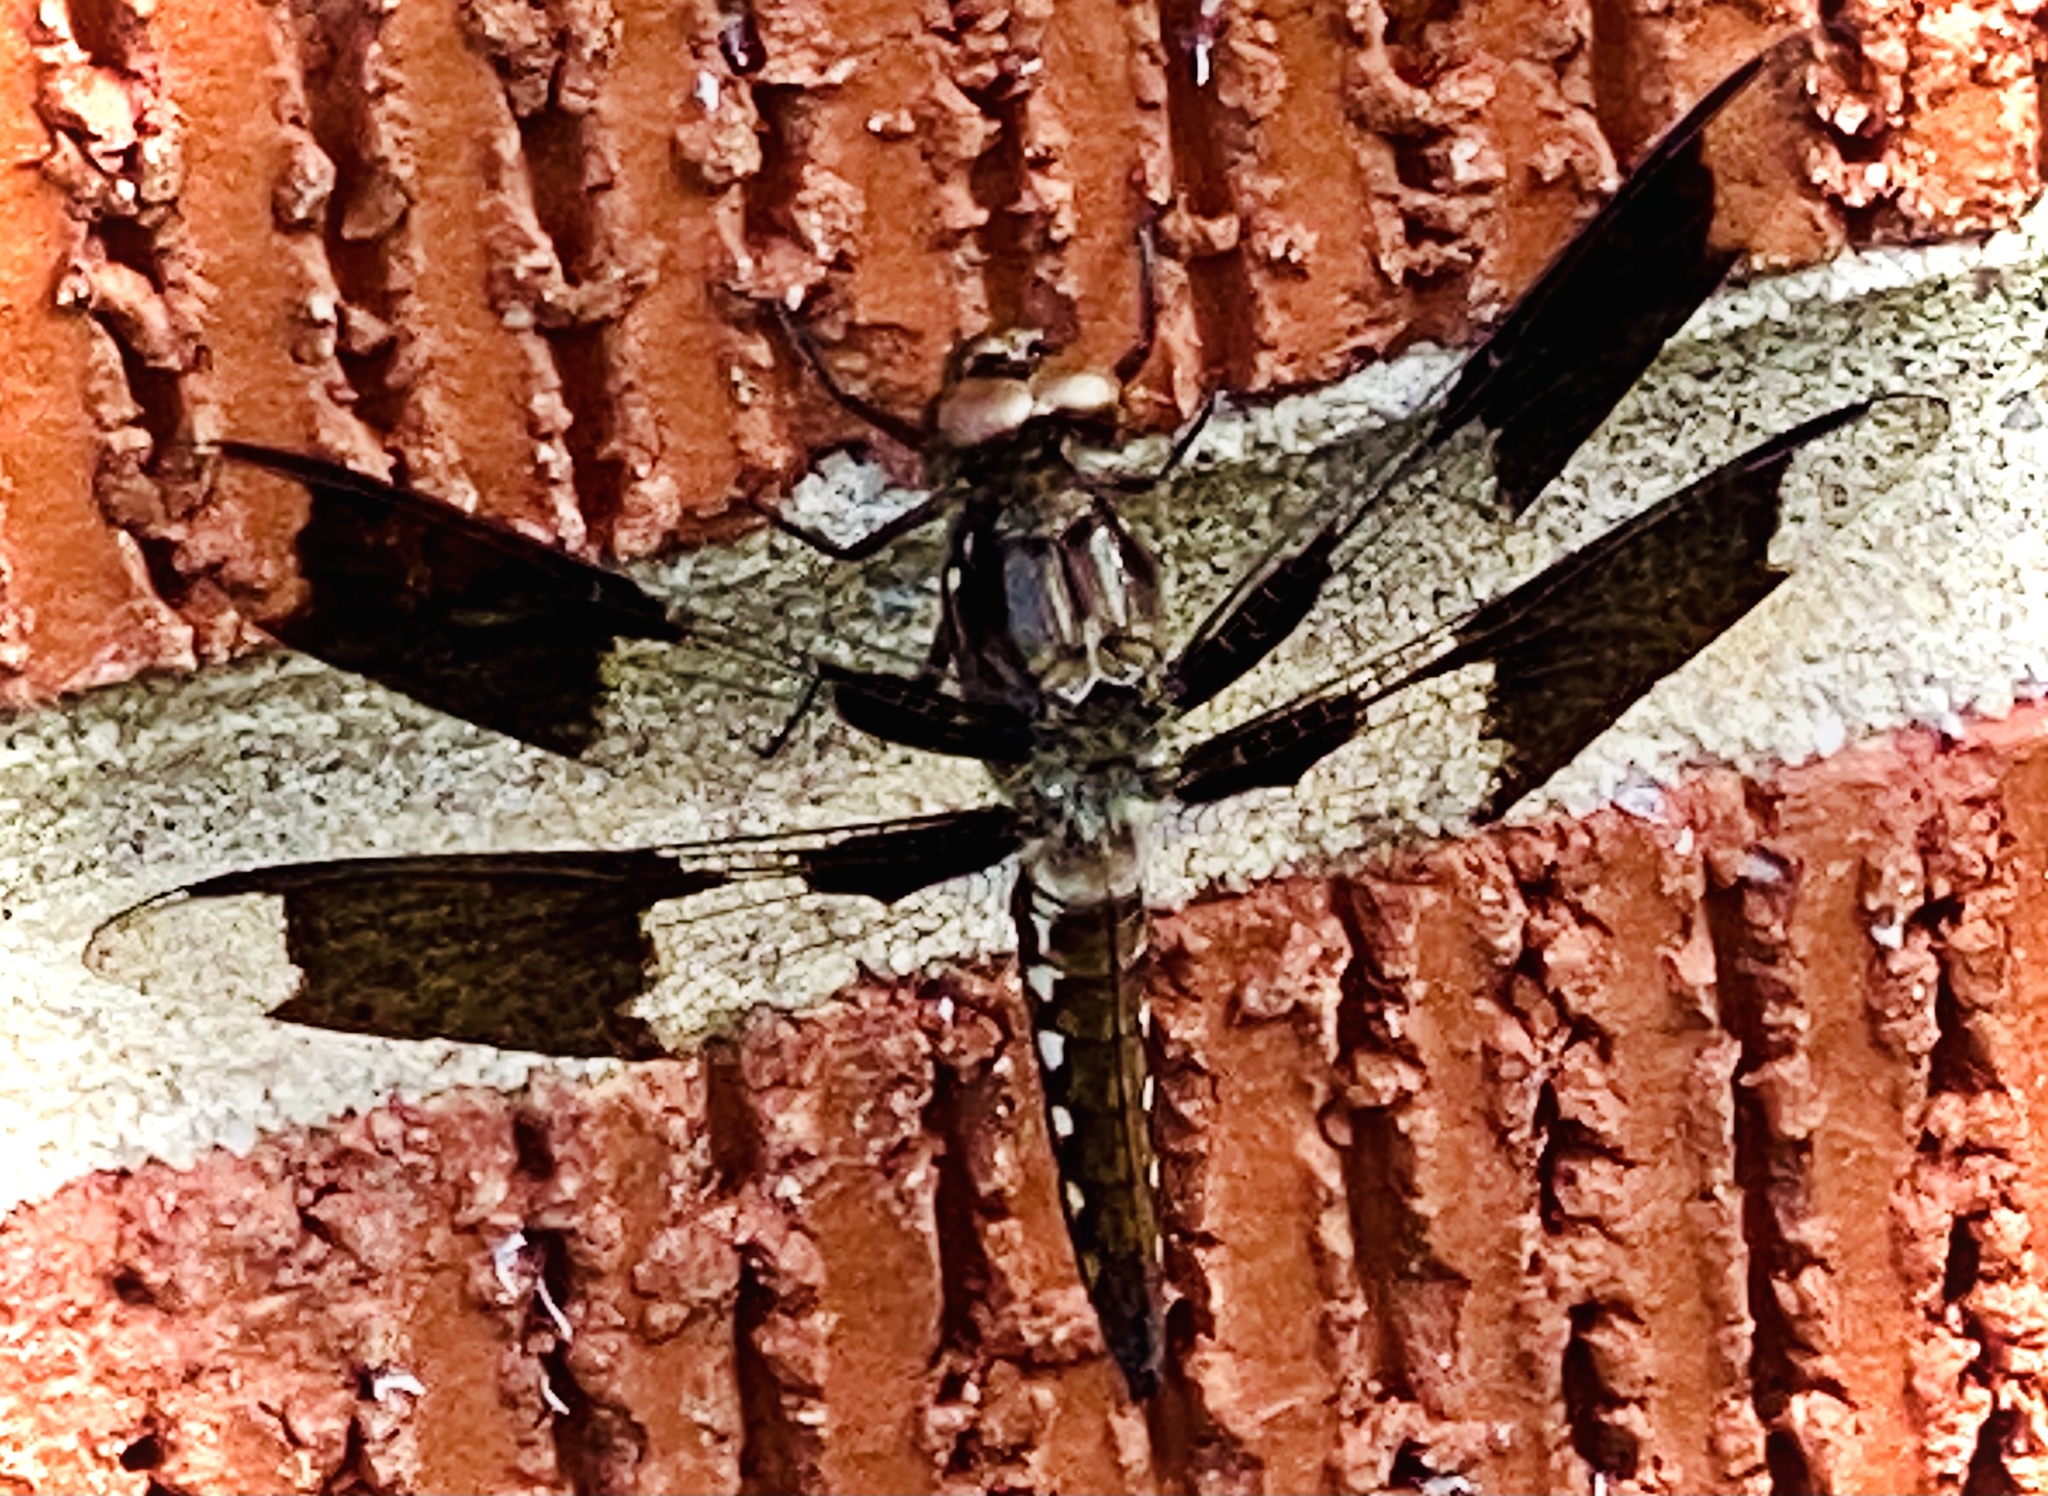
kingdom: Animalia
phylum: Arthropoda
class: Insecta
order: Odonata
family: Libellulidae
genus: Plathemis
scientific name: Plathemis lydia
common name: Common whitetail
